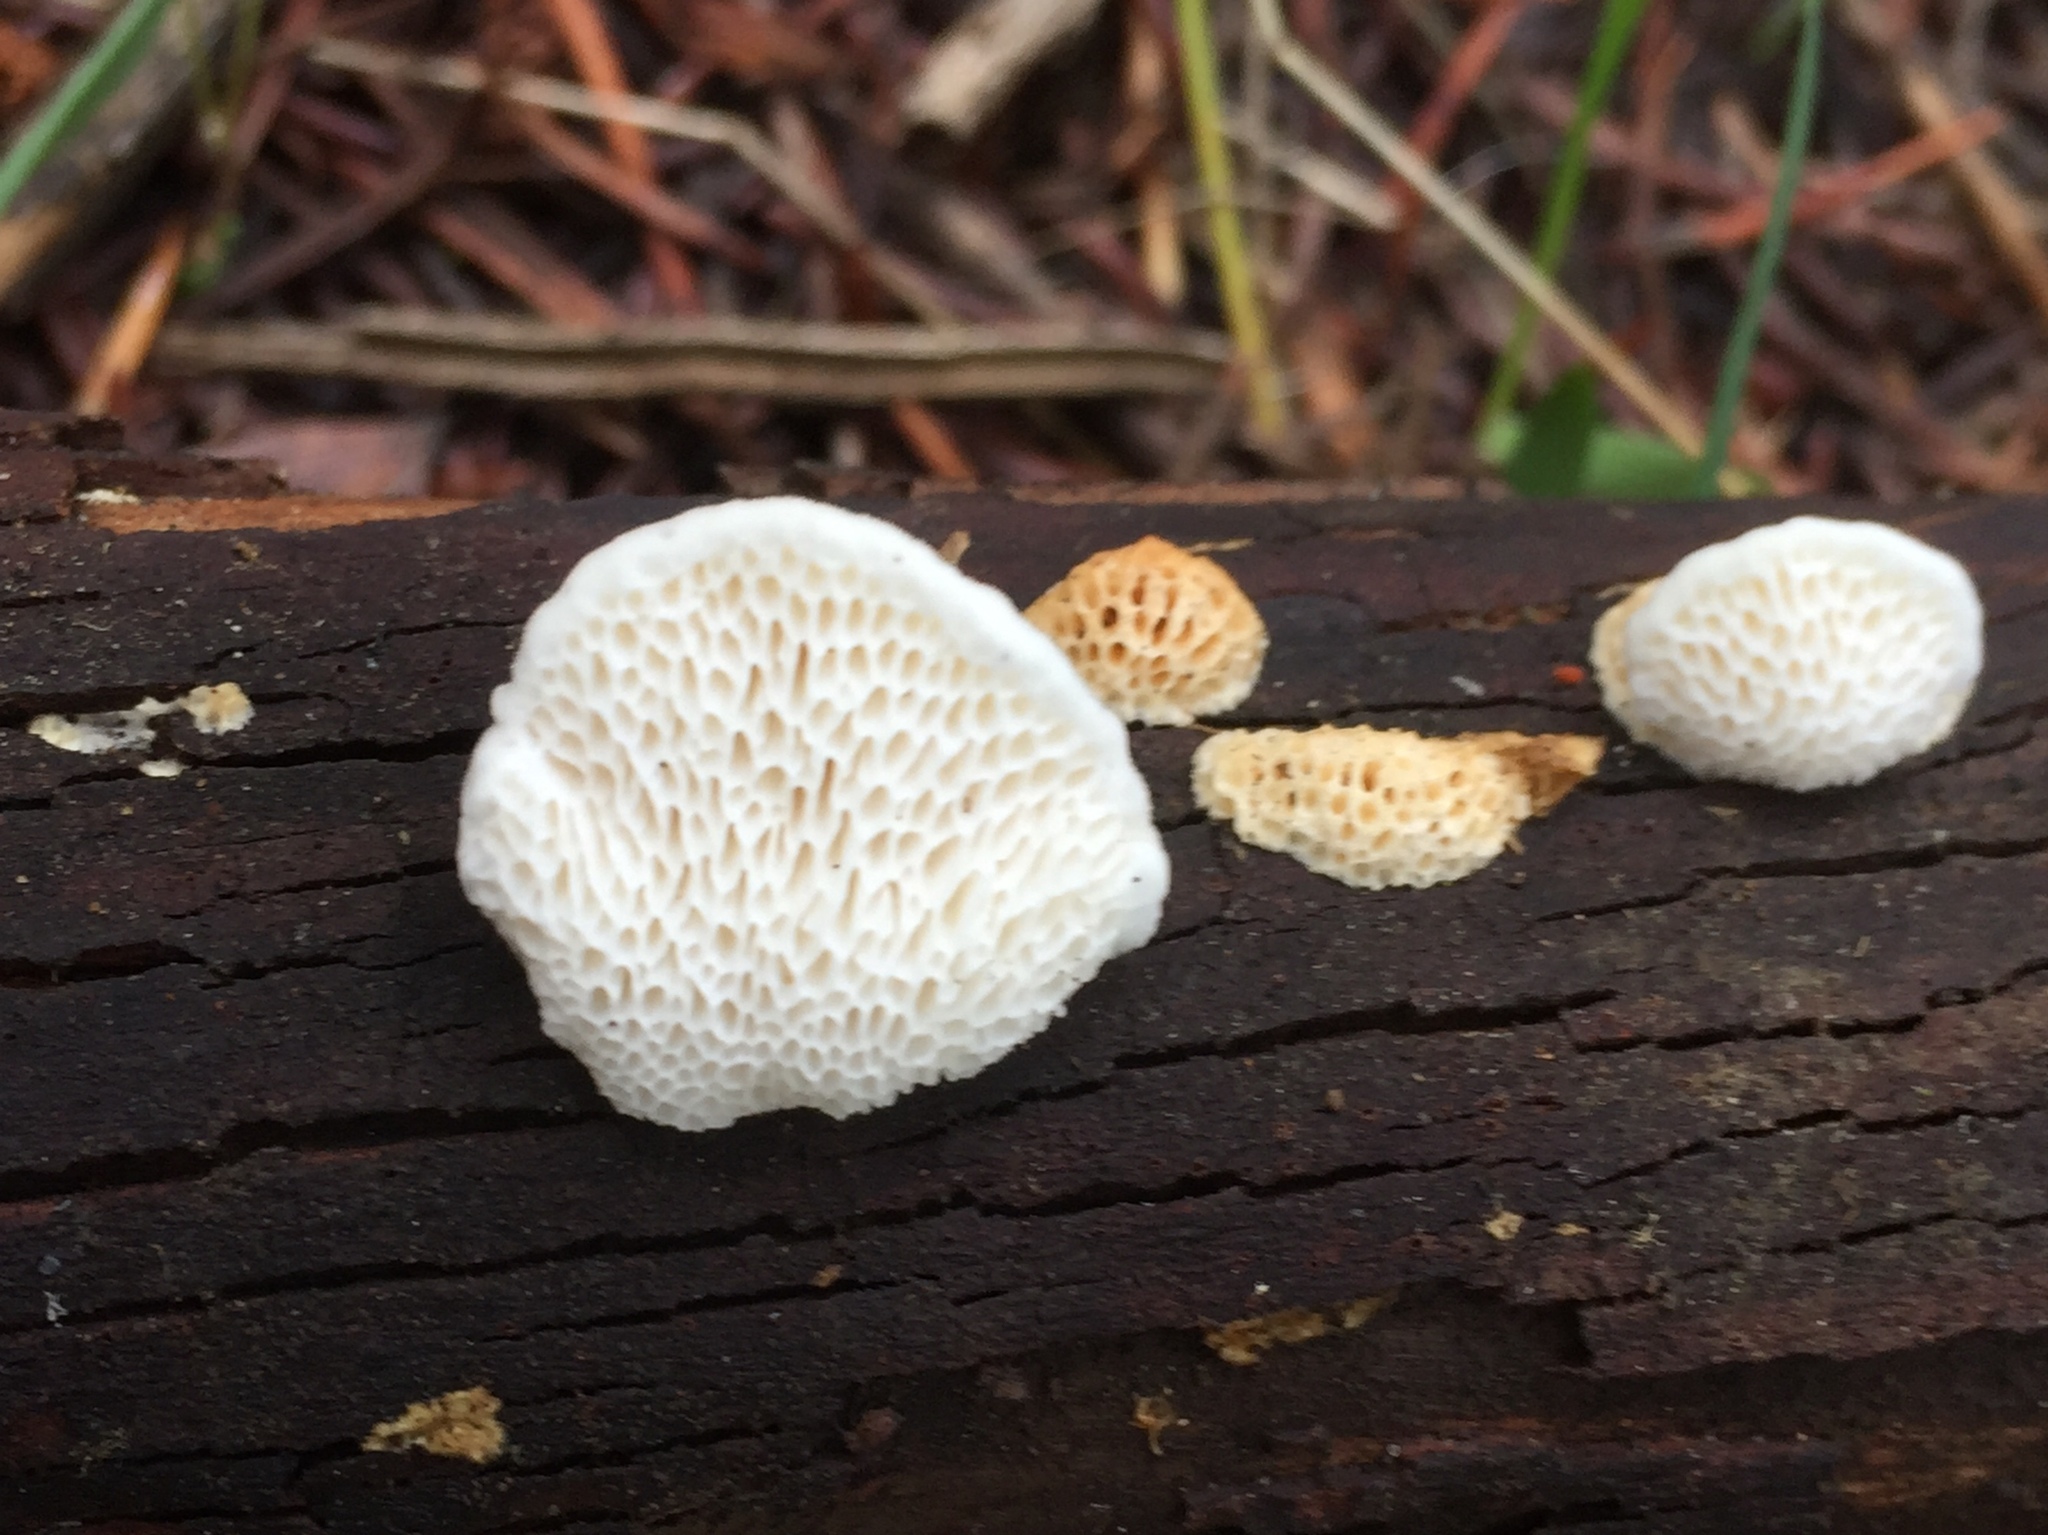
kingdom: Fungi
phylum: Basidiomycota
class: Agaricomycetes
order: Polyporales
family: Fomitopsidaceae
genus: Fomitopsis
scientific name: Fomitopsis
